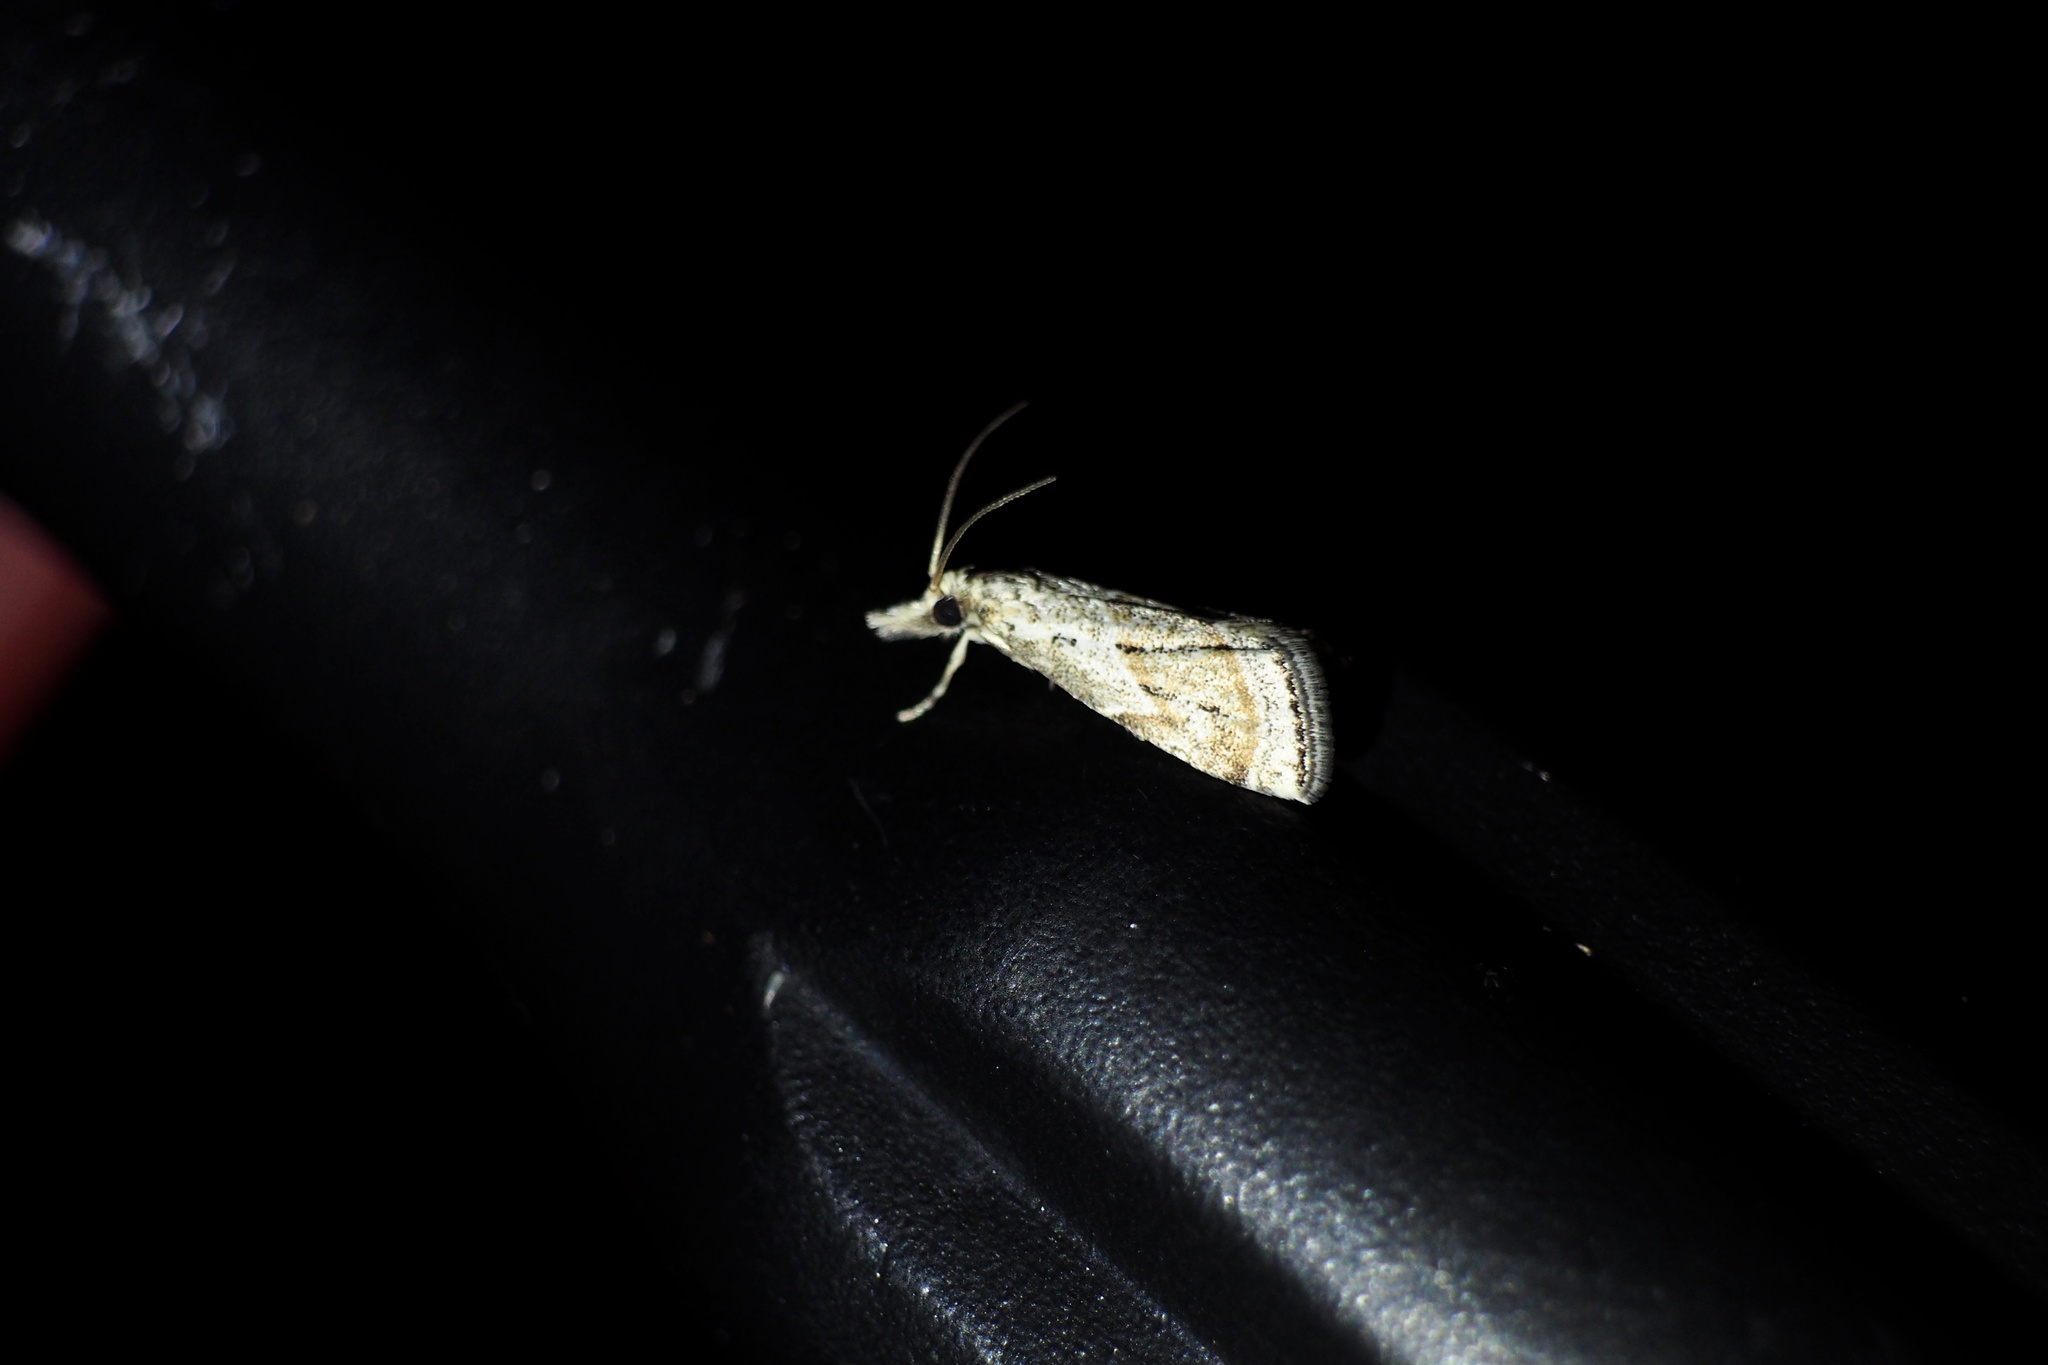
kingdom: Animalia
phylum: Arthropoda
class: Insecta
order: Lepidoptera
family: Crambidae
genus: Microchilo
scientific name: Microchilo inexpectellus
